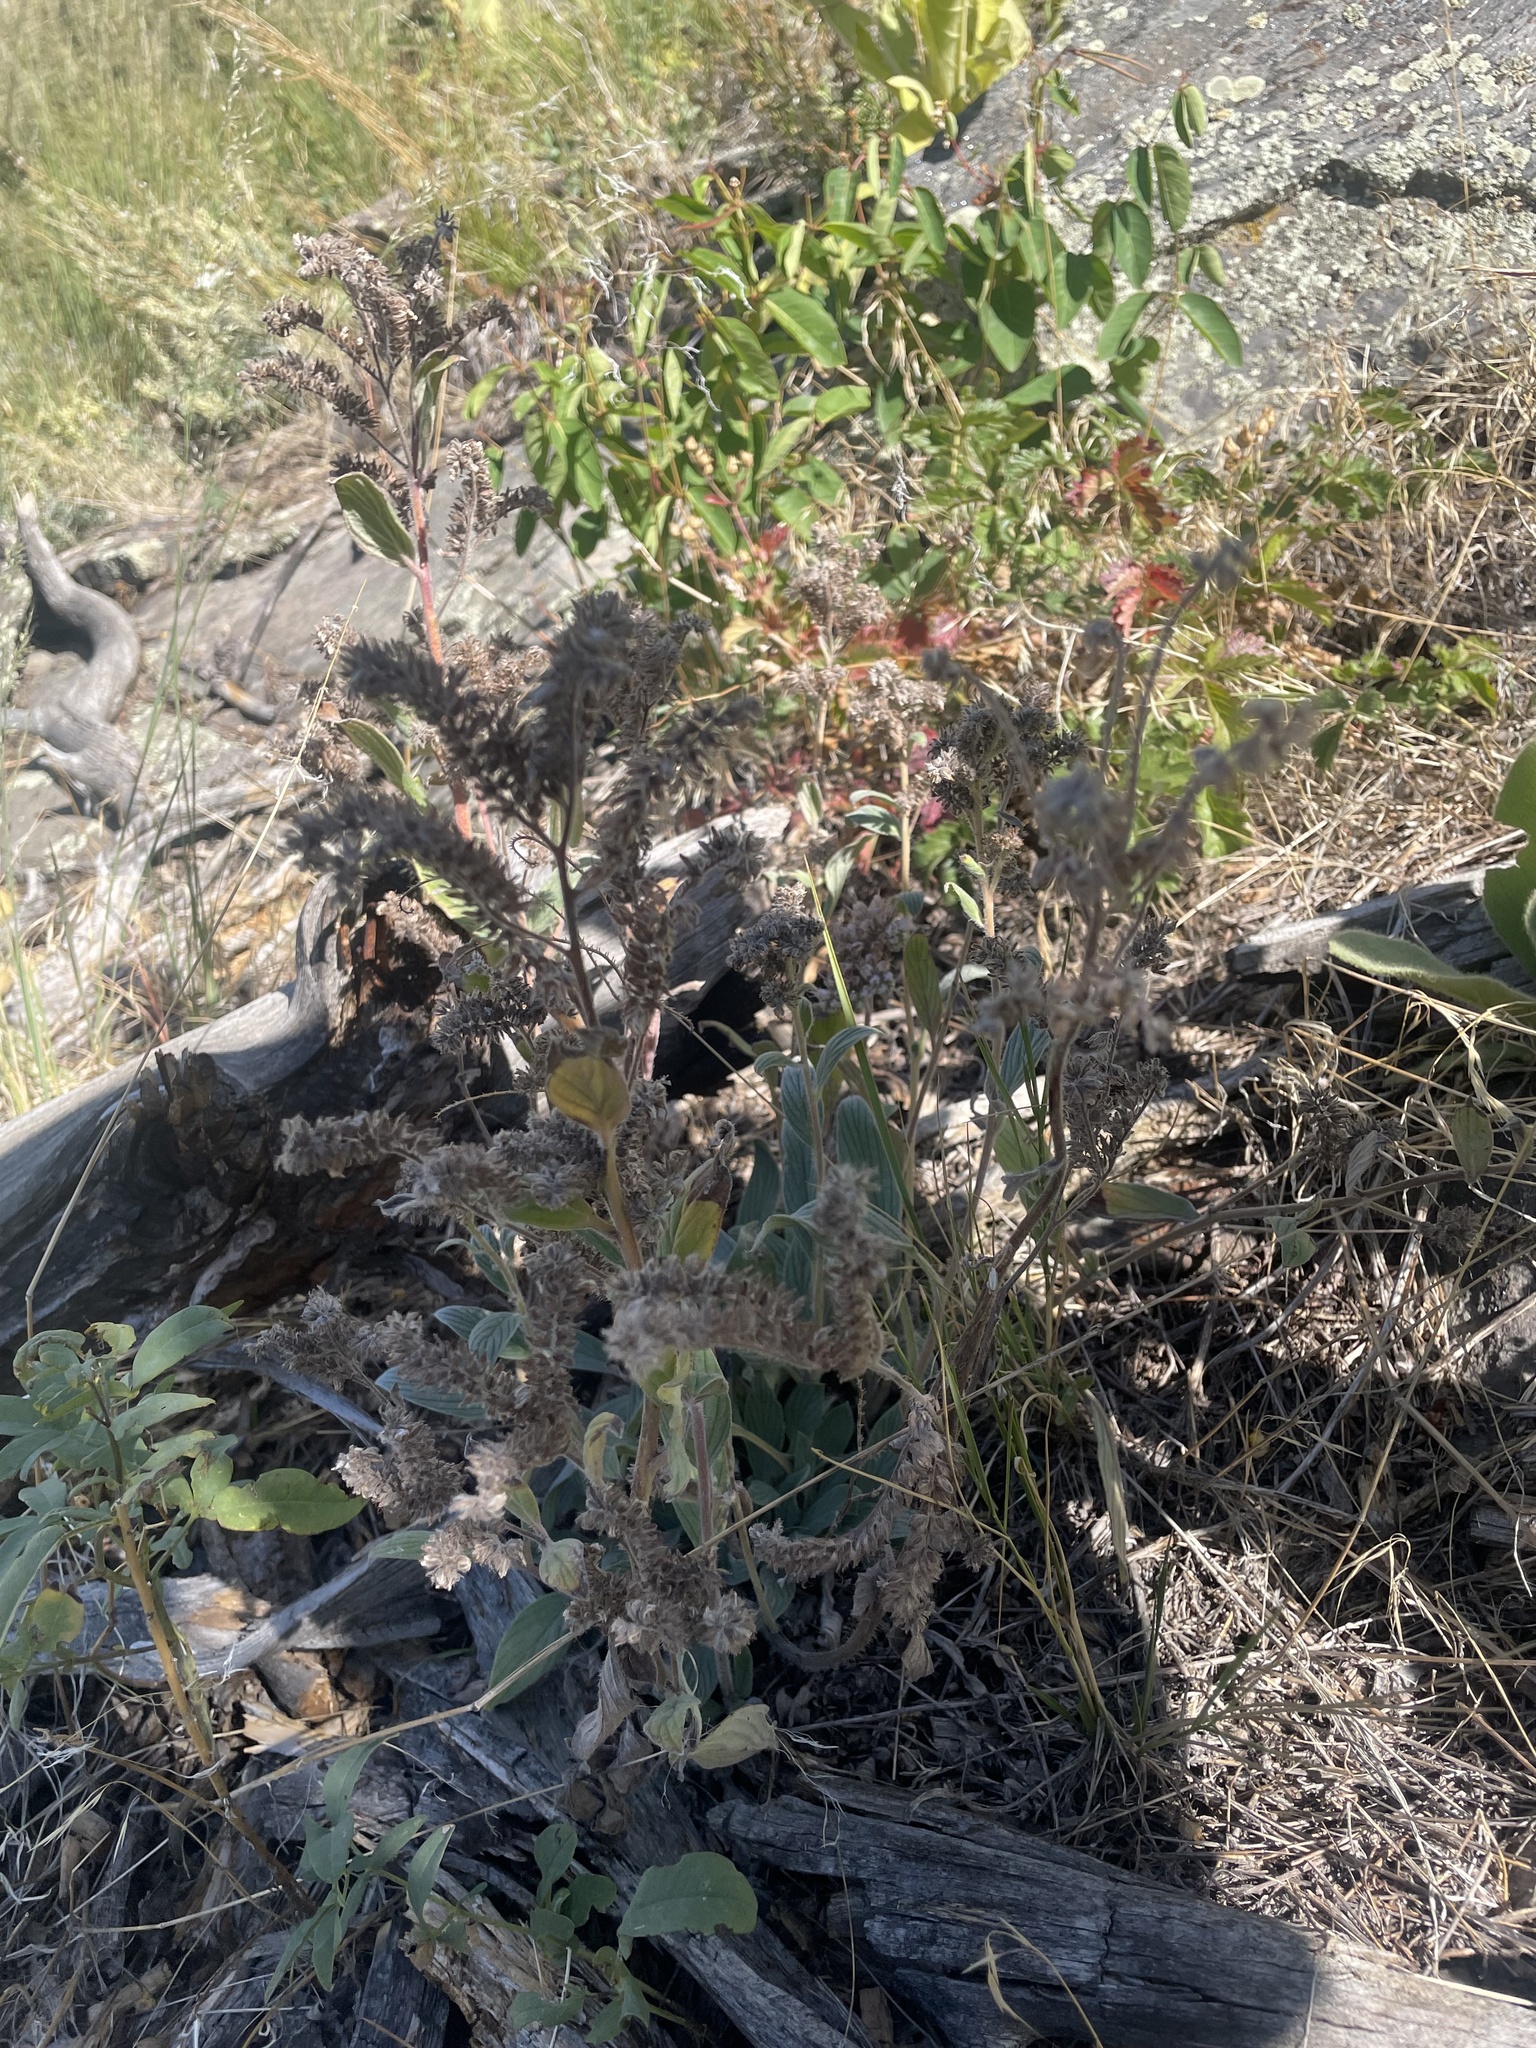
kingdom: Plantae
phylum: Tracheophyta
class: Magnoliopsida
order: Boraginales
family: Hydrophyllaceae
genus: Phacelia
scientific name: Phacelia hastata
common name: Silver-leaved phacelia
